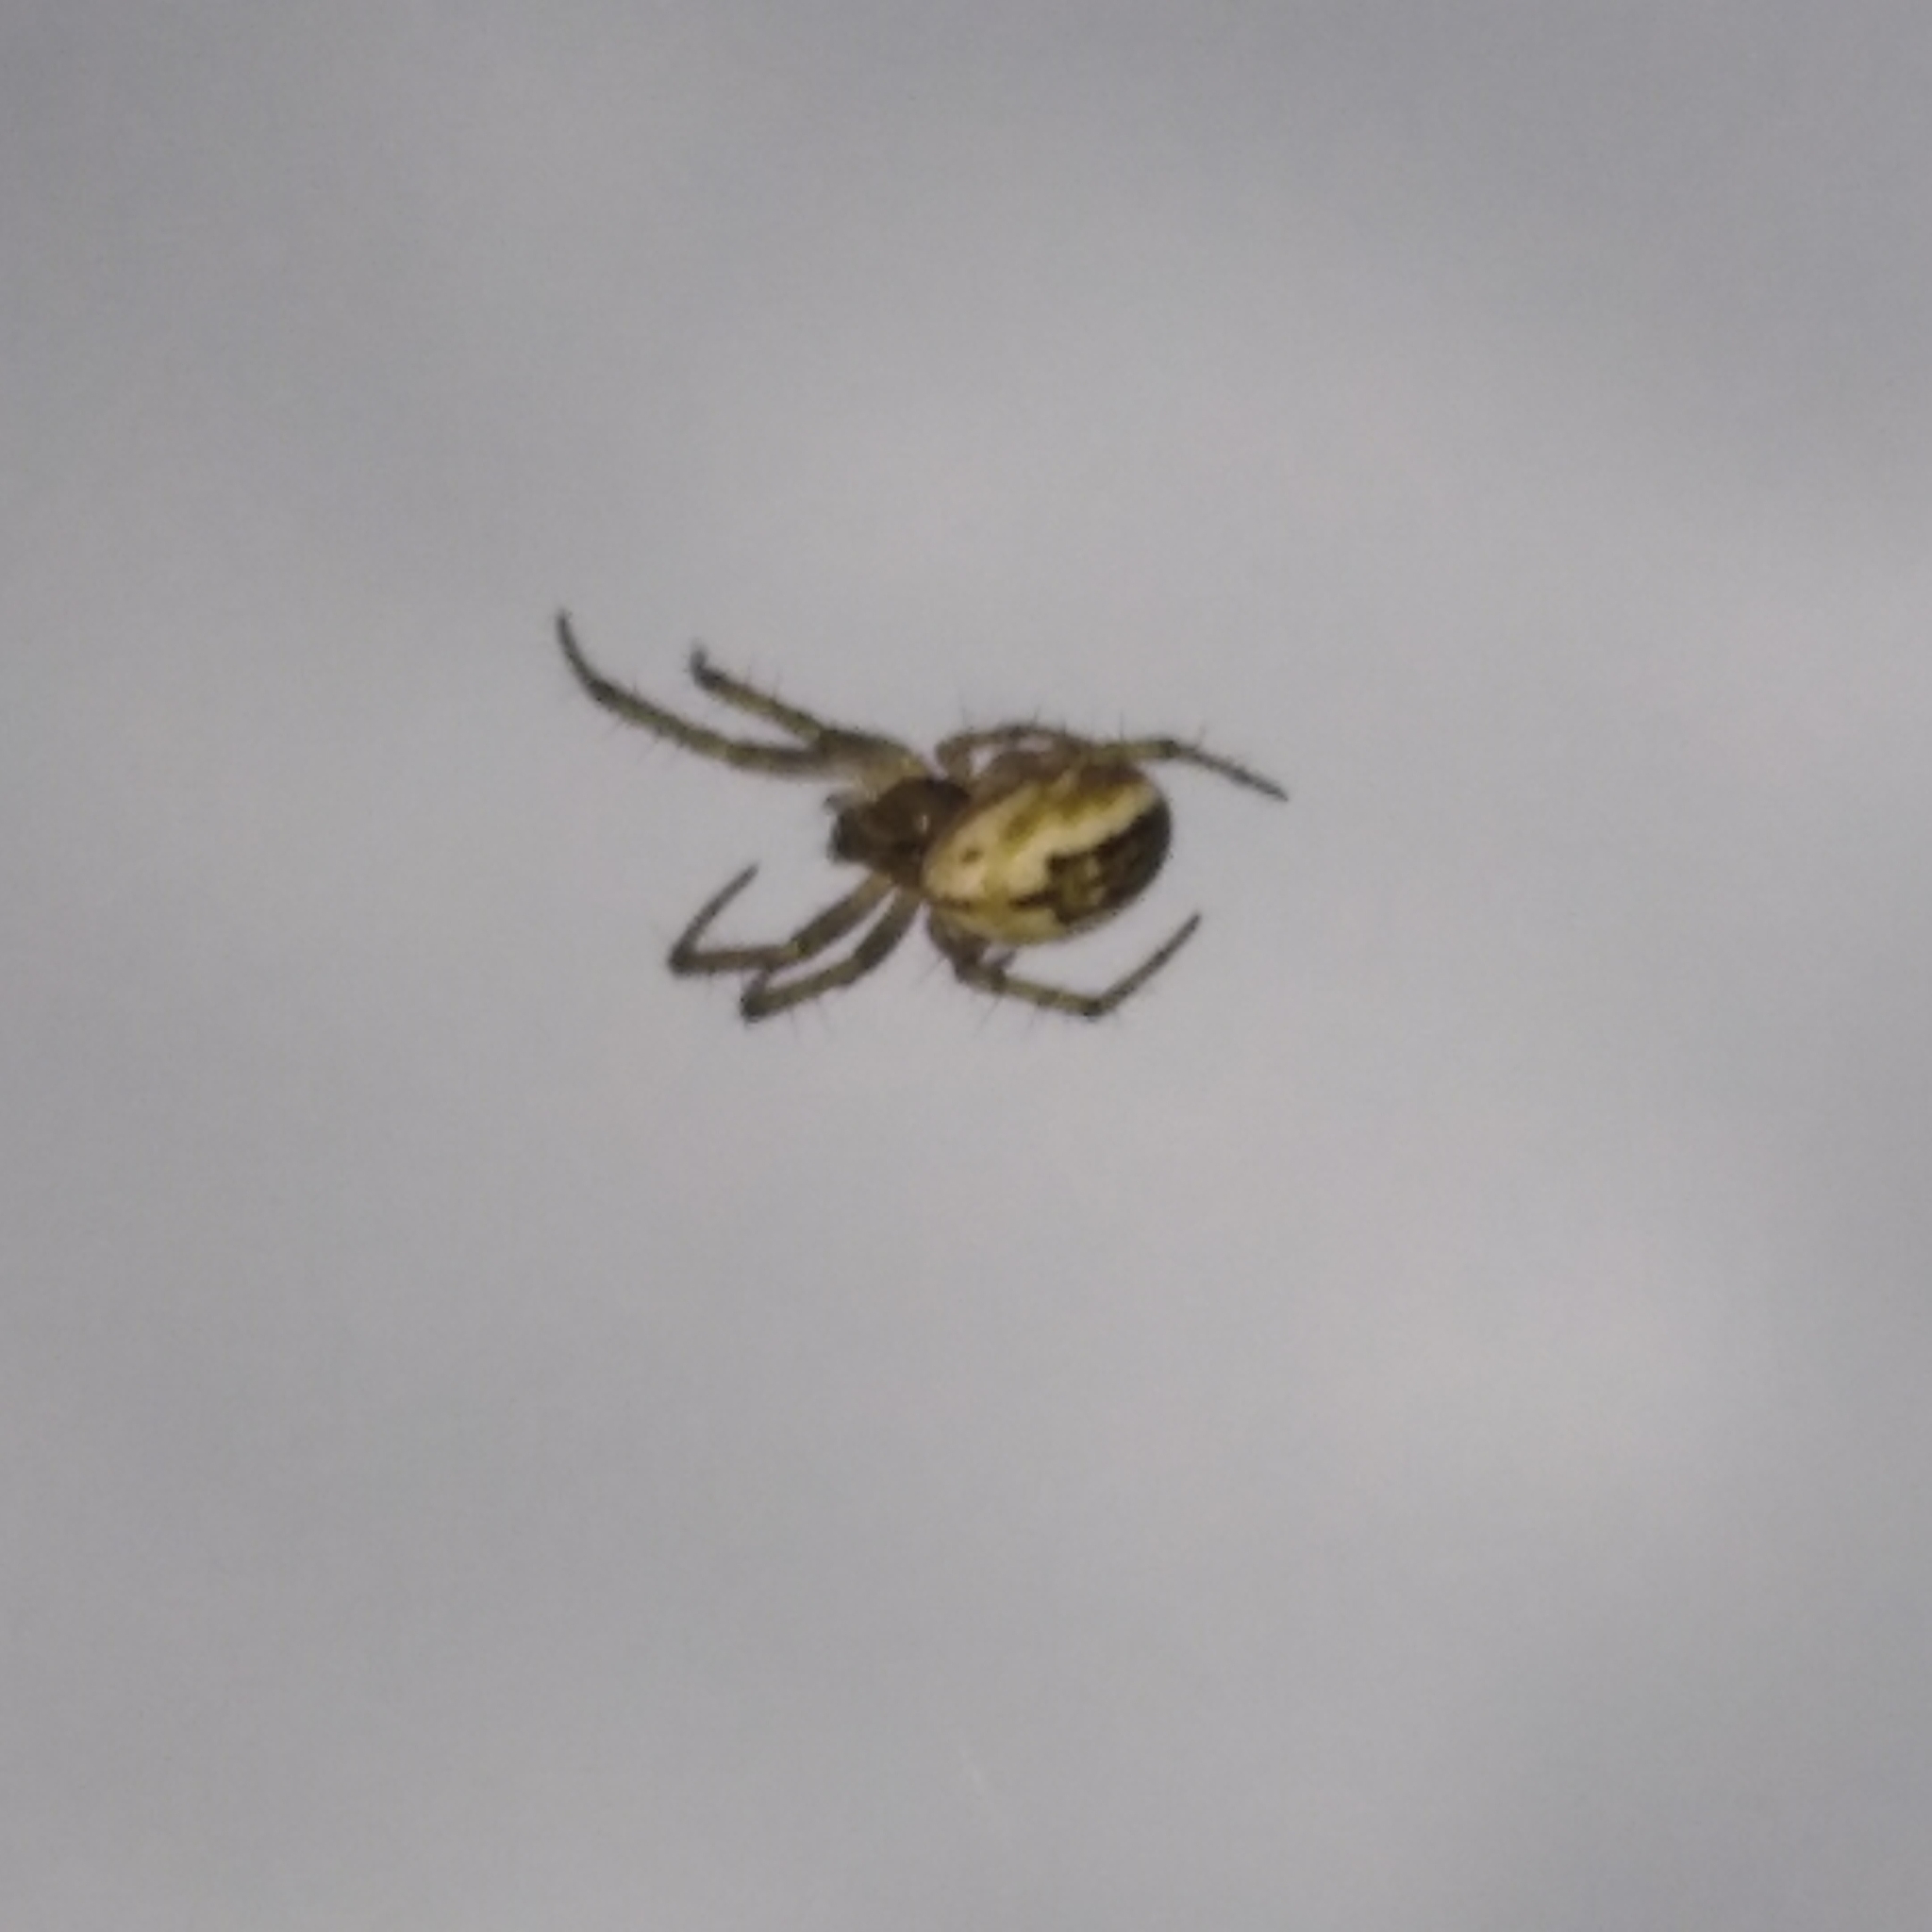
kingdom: Animalia
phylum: Arthropoda
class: Arachnida
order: Araneae
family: Araneidae
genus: Mangora
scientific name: Mangora acalypha
